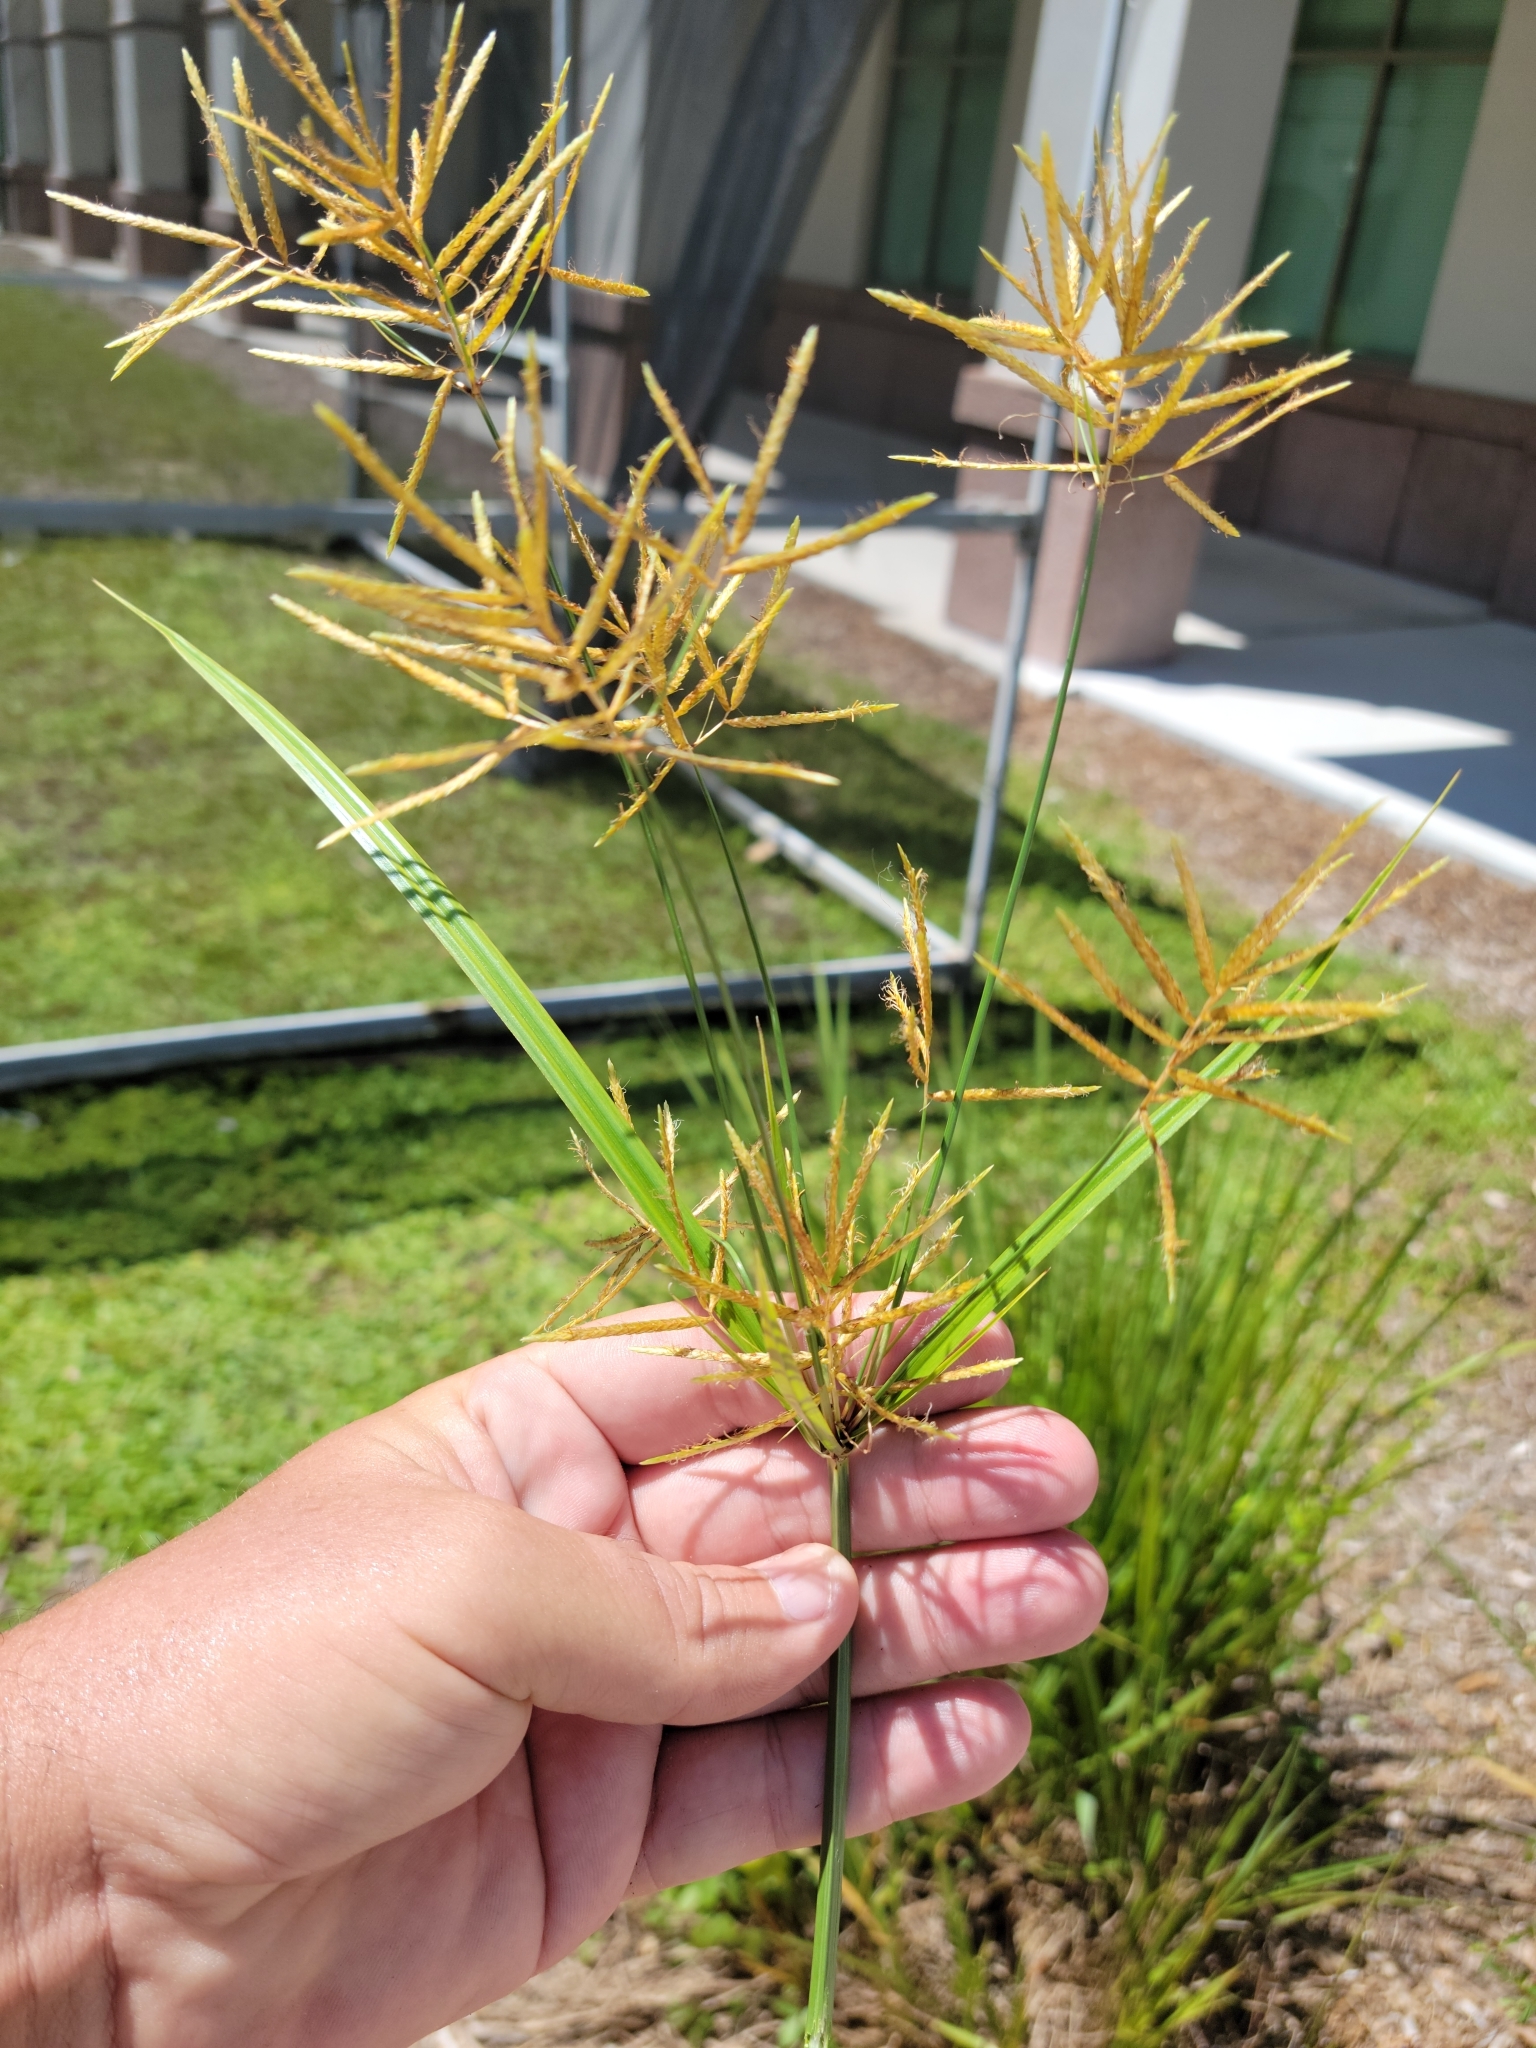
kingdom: Plantae
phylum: Tracheophyta
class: Liliopsida
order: Poales
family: Cyperaceae
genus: Cyperus
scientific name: Cyperus esculentus
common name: Yellow nutsedge
